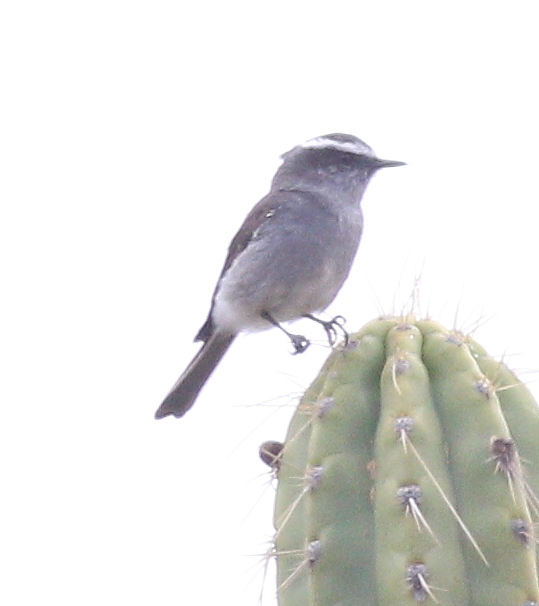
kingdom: Animalia
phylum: Chordata
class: Aves
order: Passeriformes
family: Tyrannidae
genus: Ochthoeca
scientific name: Ochthoeca leucophrys
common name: White-browed chat-tyrant
